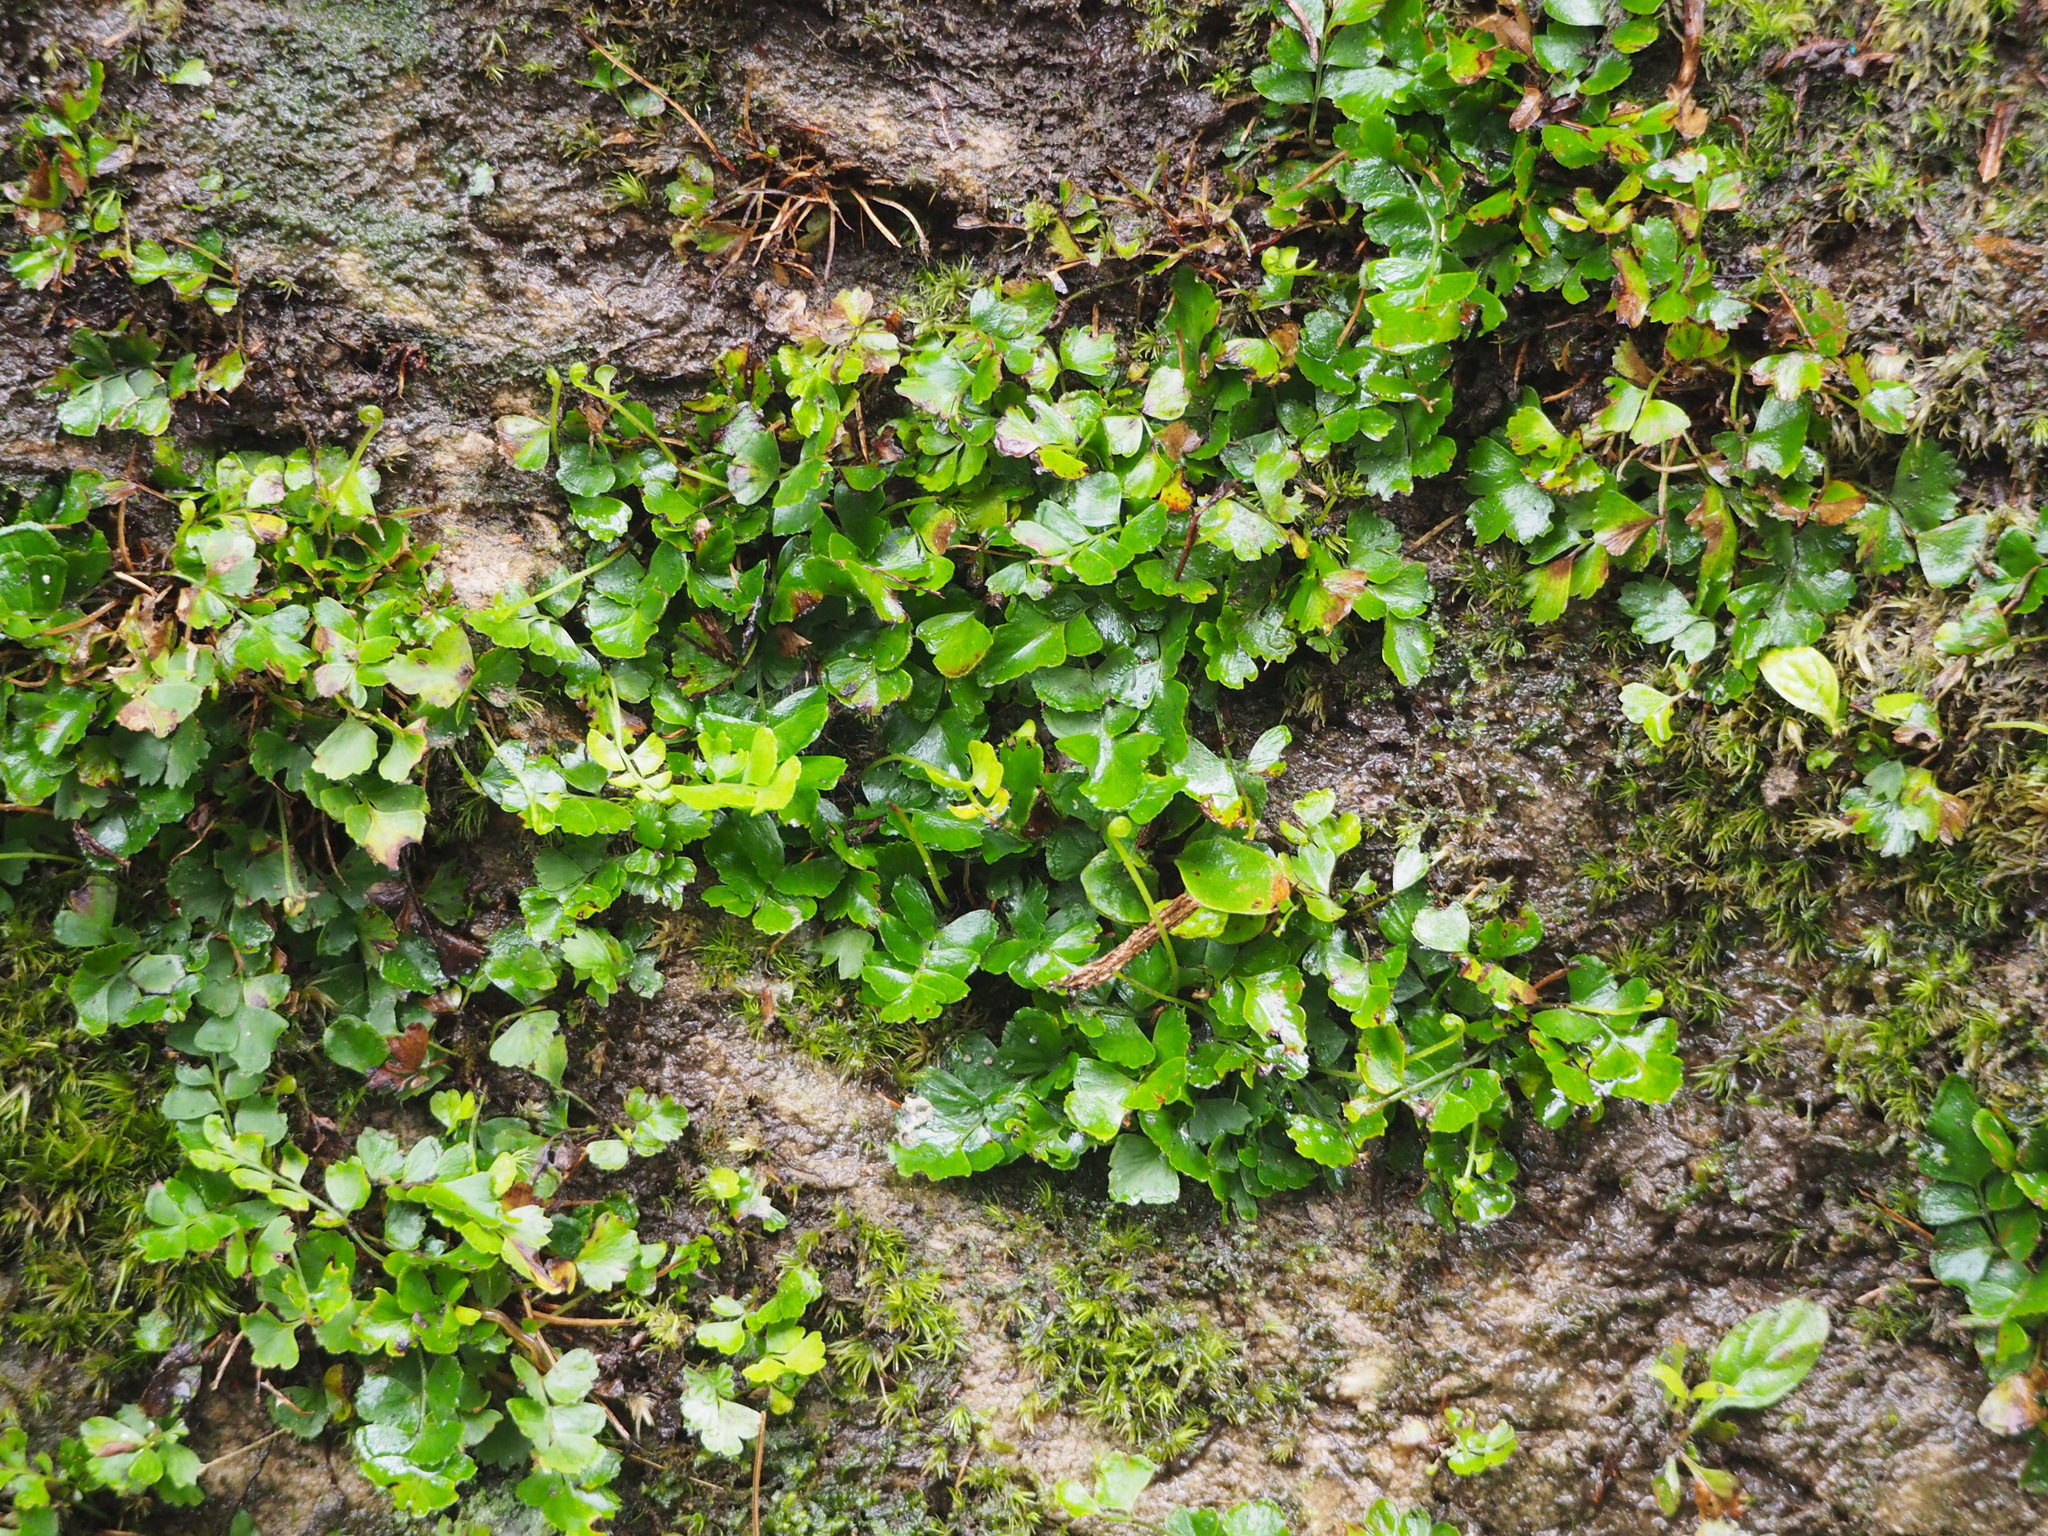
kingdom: Plantae
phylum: Tracheophyta
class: Polypodiopsida
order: Polypodiales
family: Lindsaeaceae
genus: Lindsaea
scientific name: Lindsaea bonii
